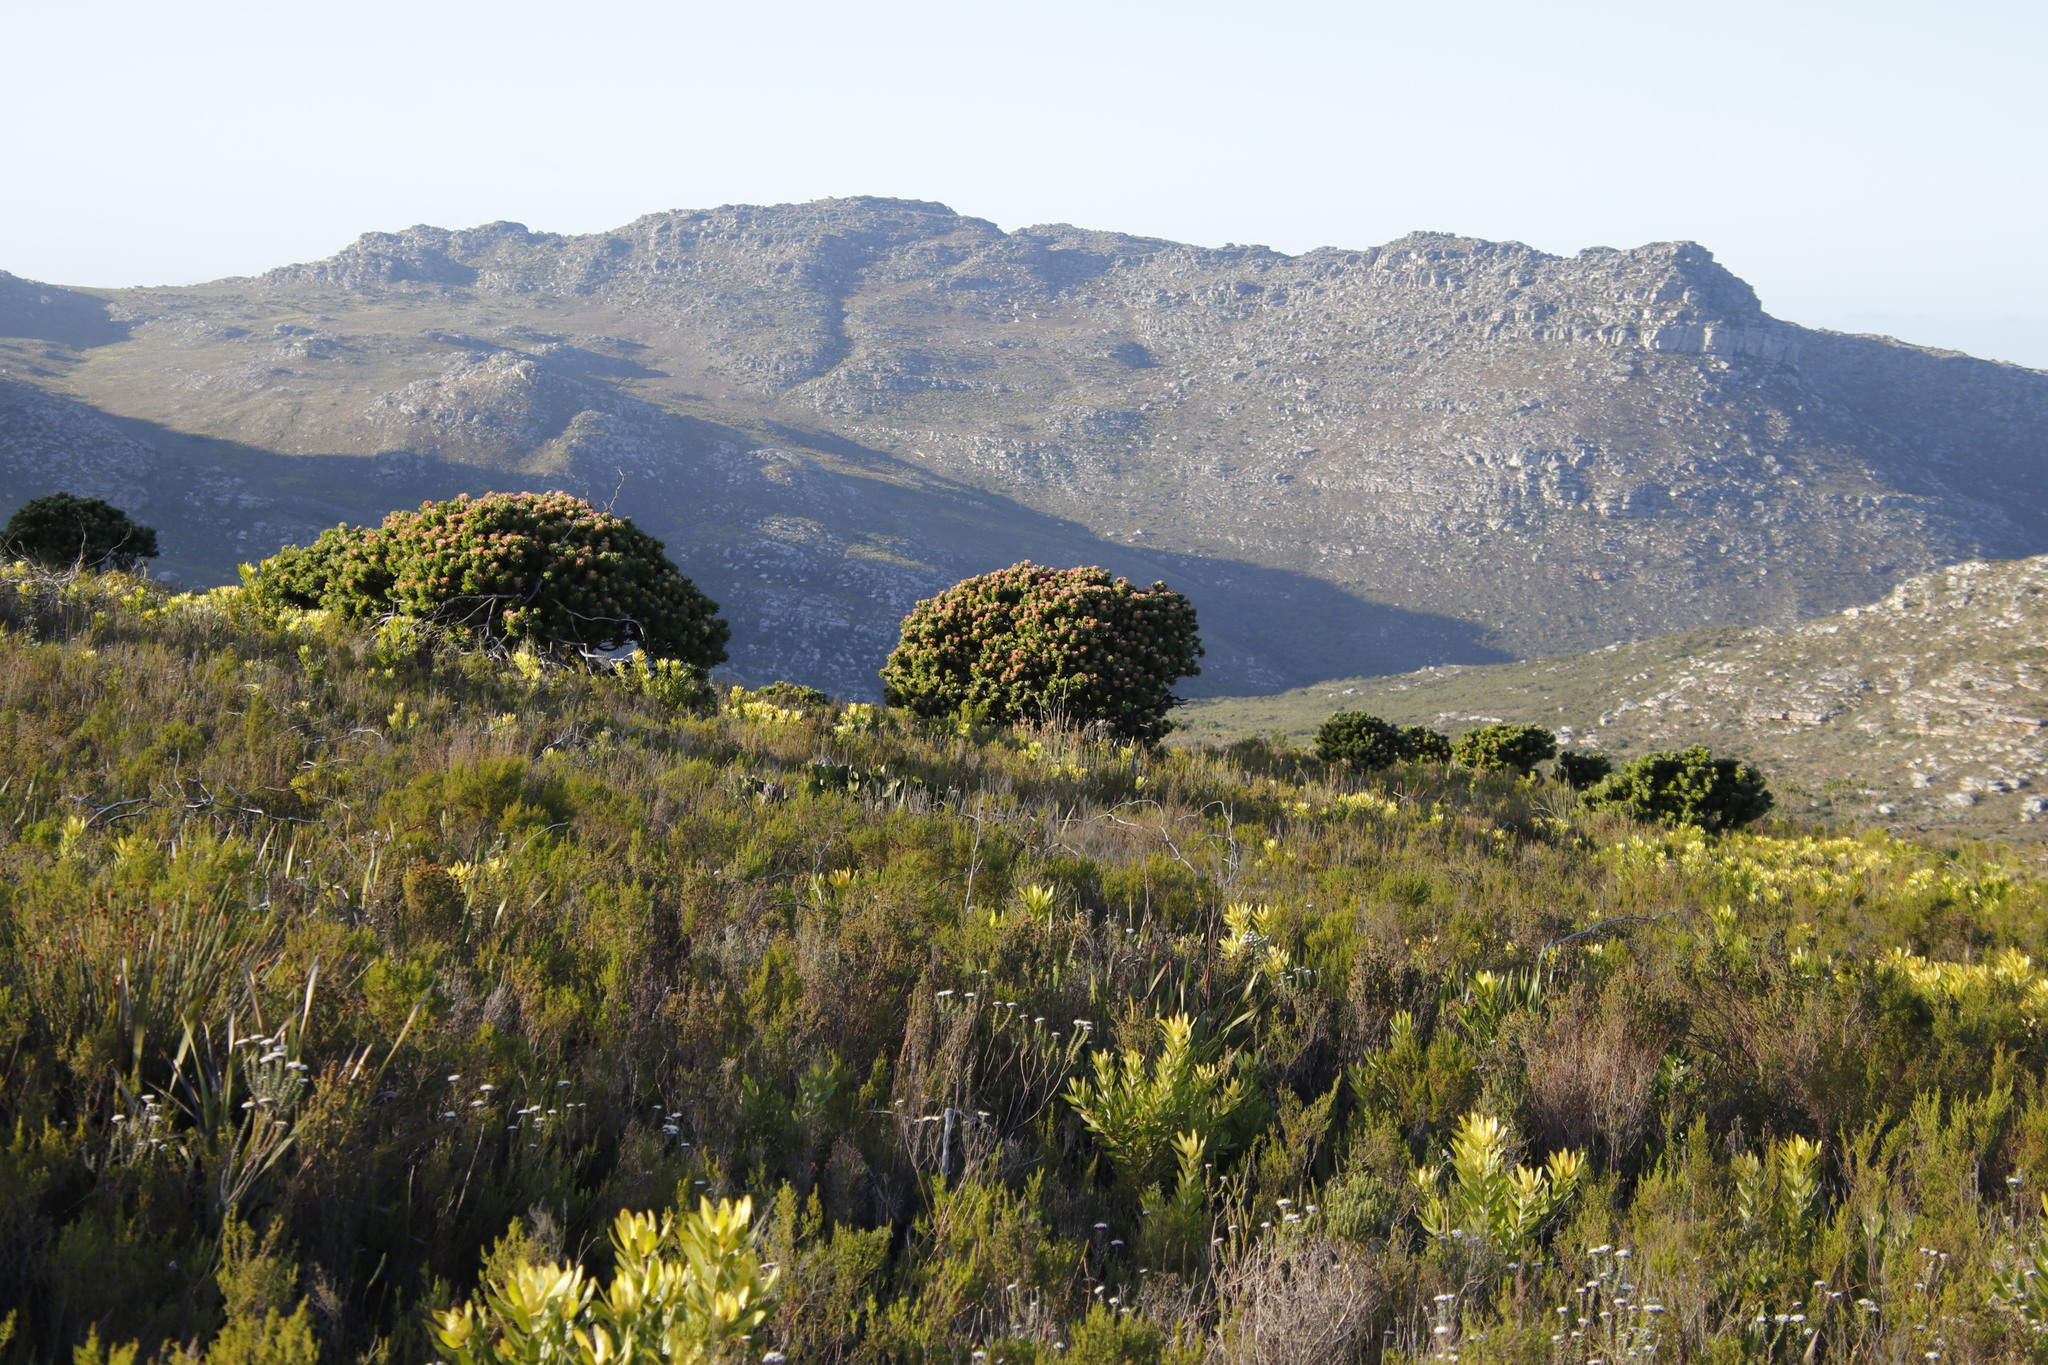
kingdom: Plantae
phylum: Tracheophyta
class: Magnoliopsida
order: Proteales
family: Proteaceae
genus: Mimetes
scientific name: Mimetes fimbriifolius
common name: Fringed bottlebrush
